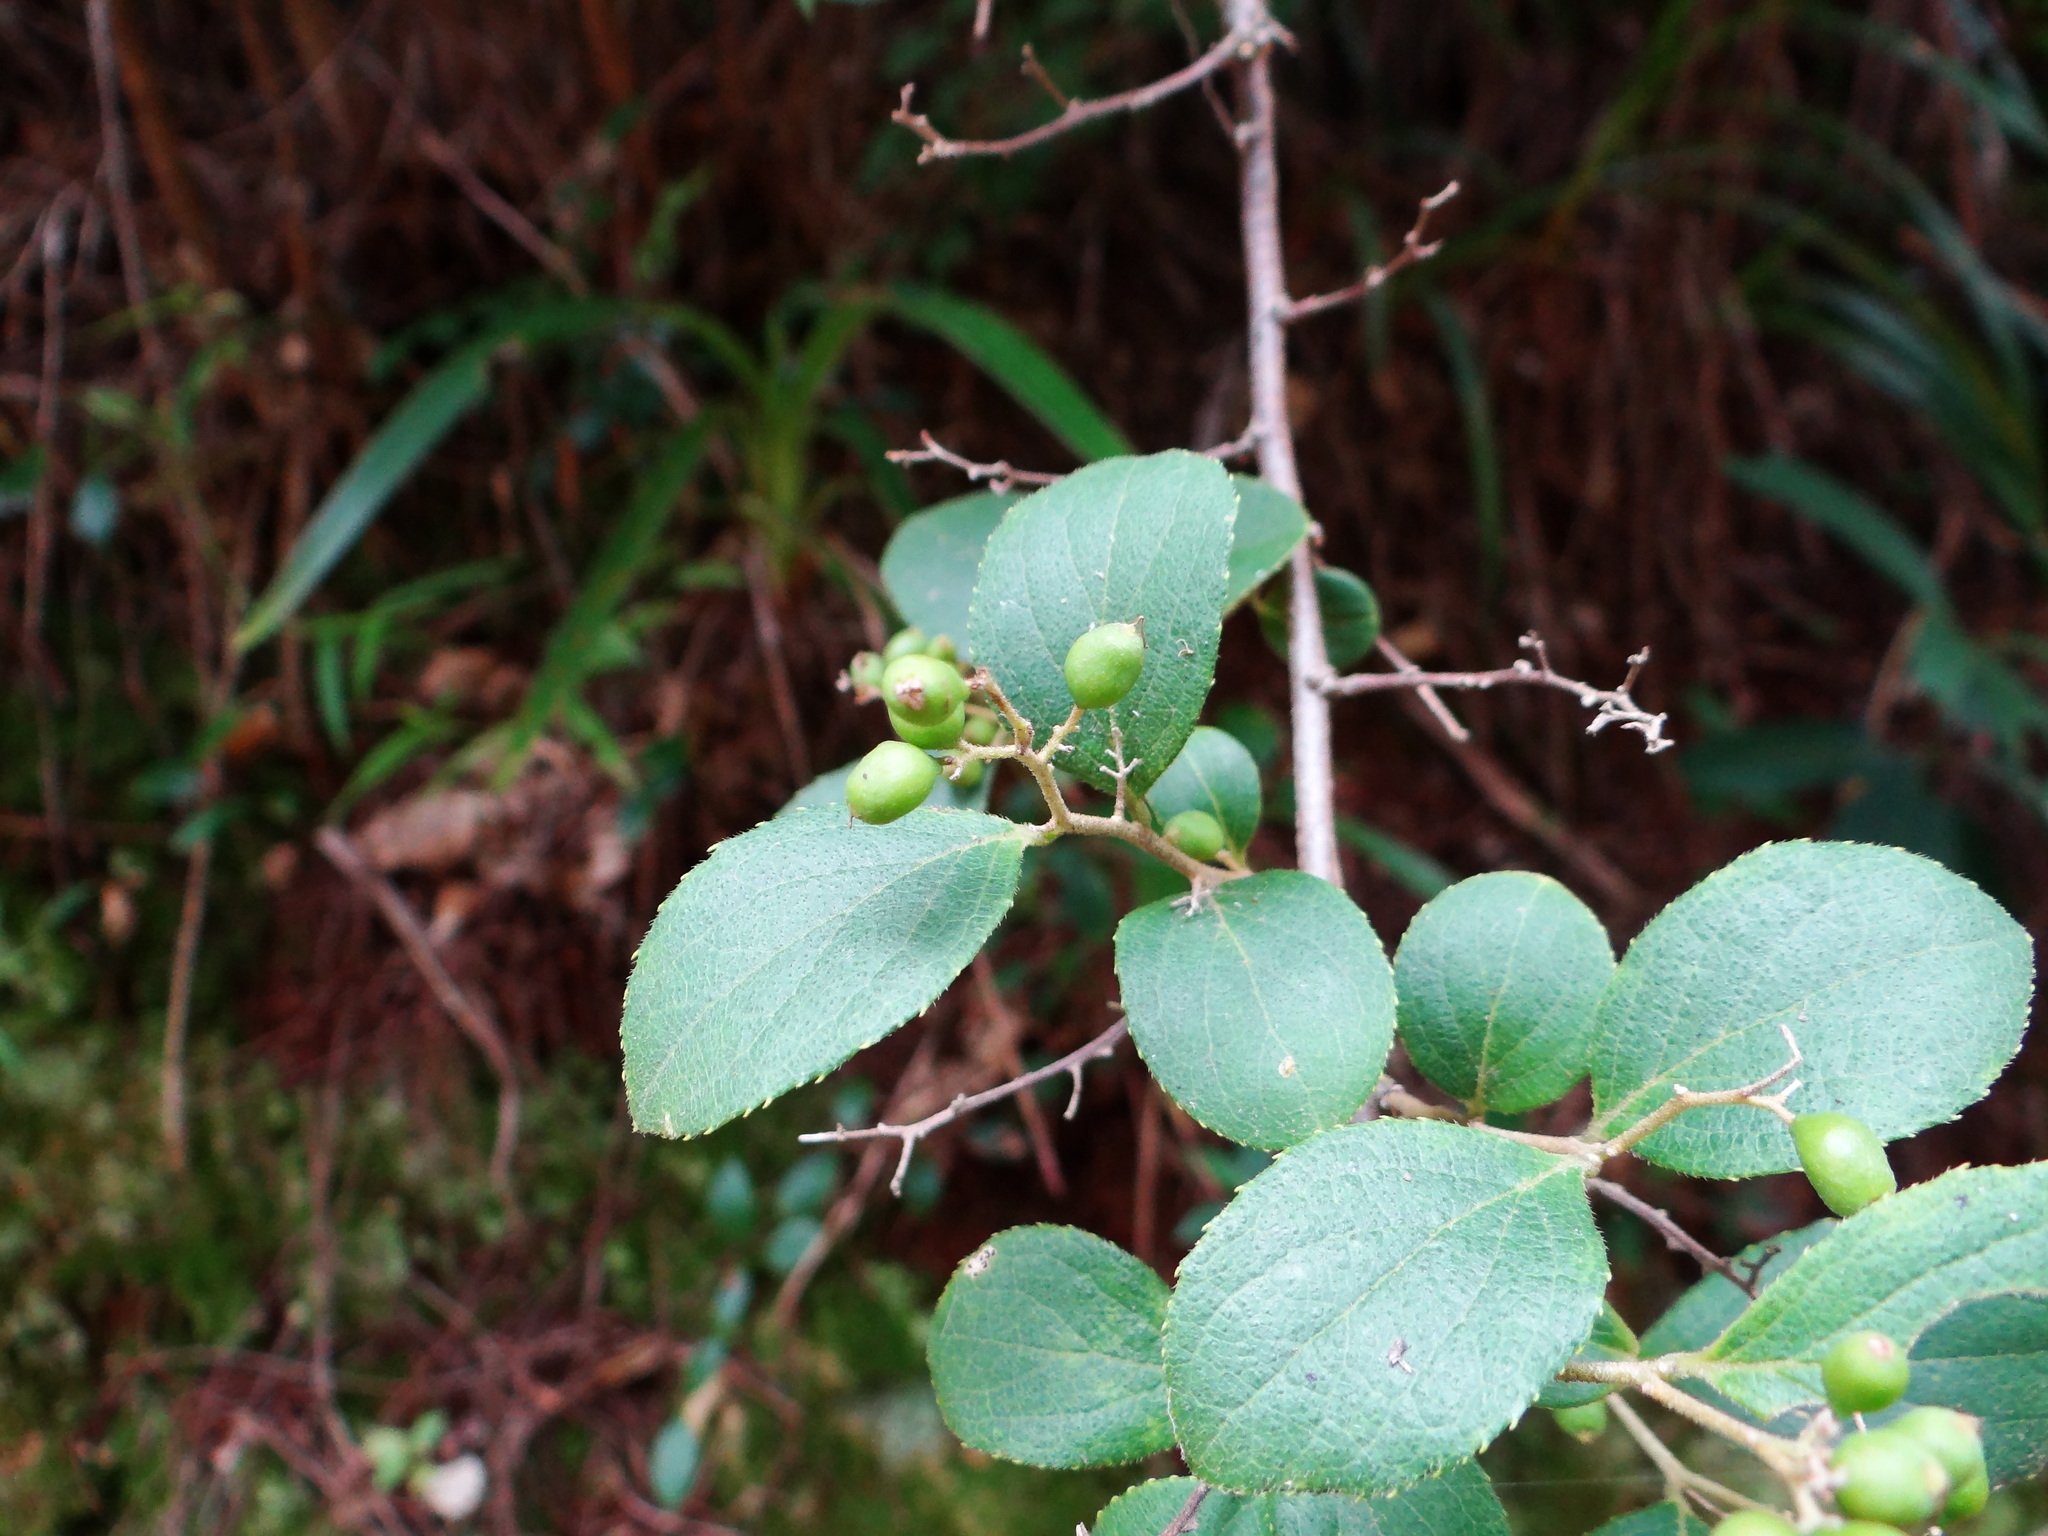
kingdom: Plantae
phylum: Tracheophyta
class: Magnoliopsida
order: Ericales
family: Symplocaceae
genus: Symplocos
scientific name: Symplocos paniculata
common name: Sapphire-berry
